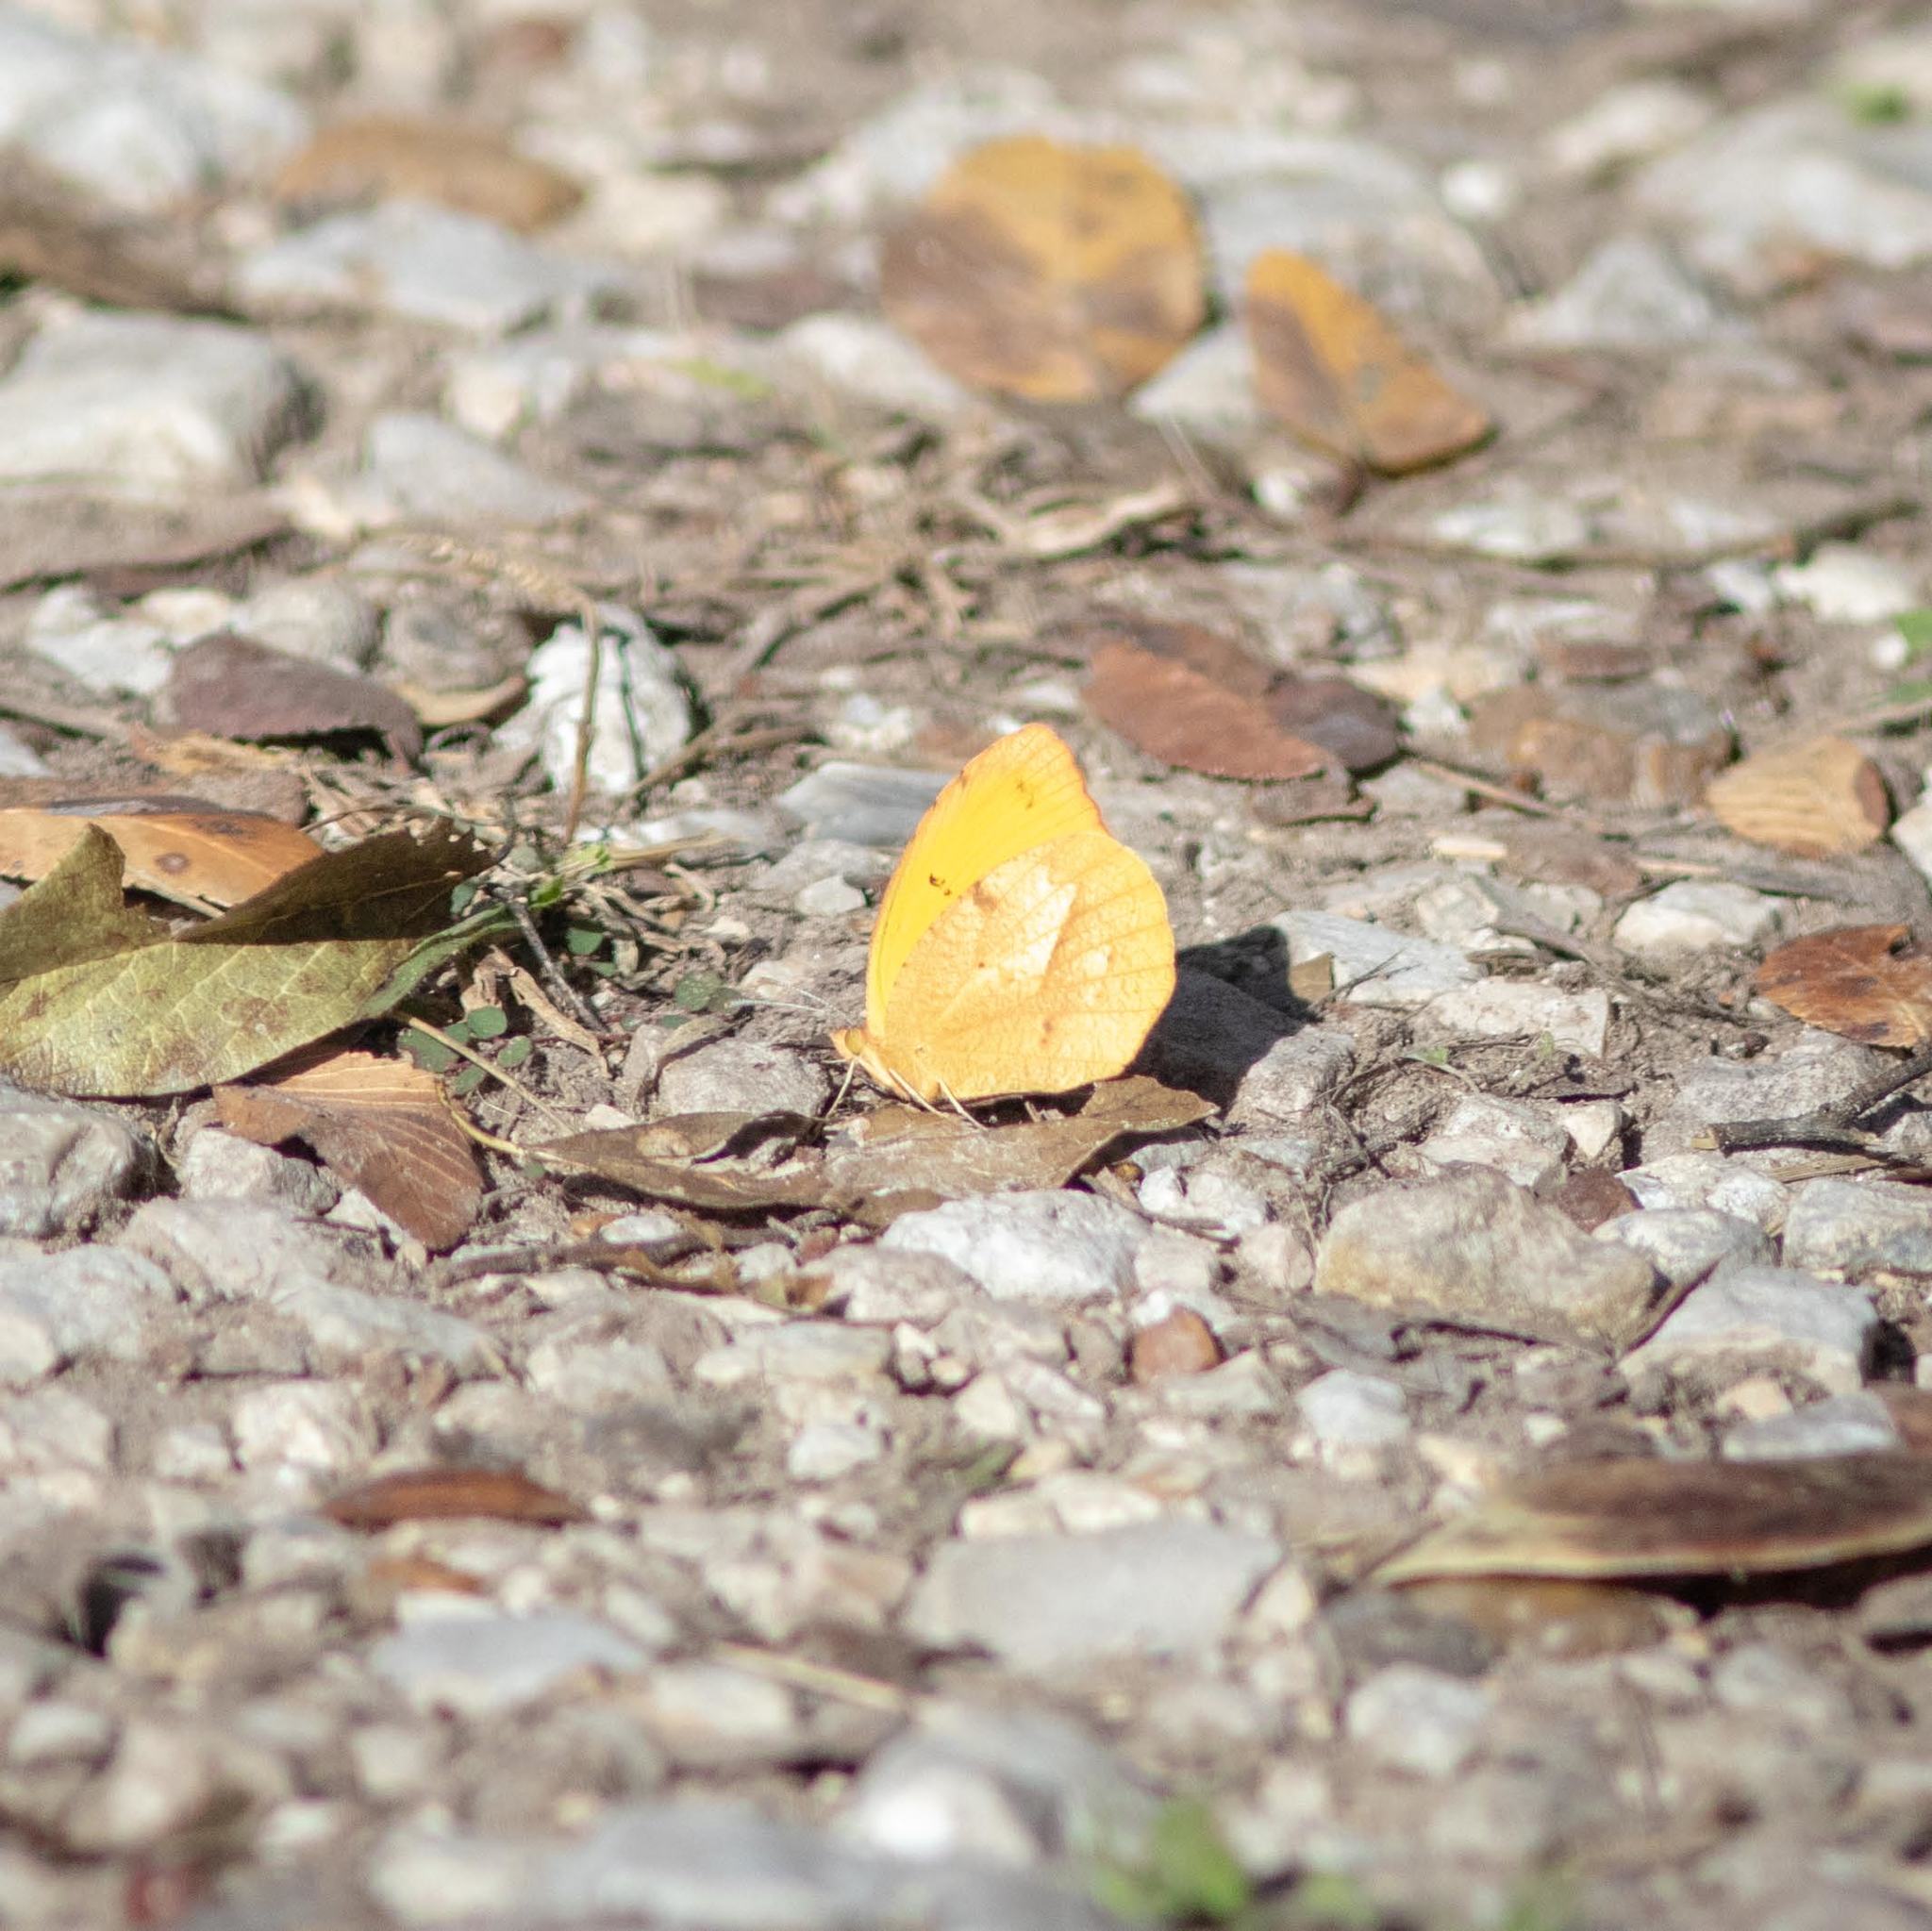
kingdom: Animalia
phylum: Arthropoda
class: Insecta
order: Lepidoptera
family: Pieridae
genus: Abaeis
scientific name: Abaeis nicippe
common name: Sleepy orange
